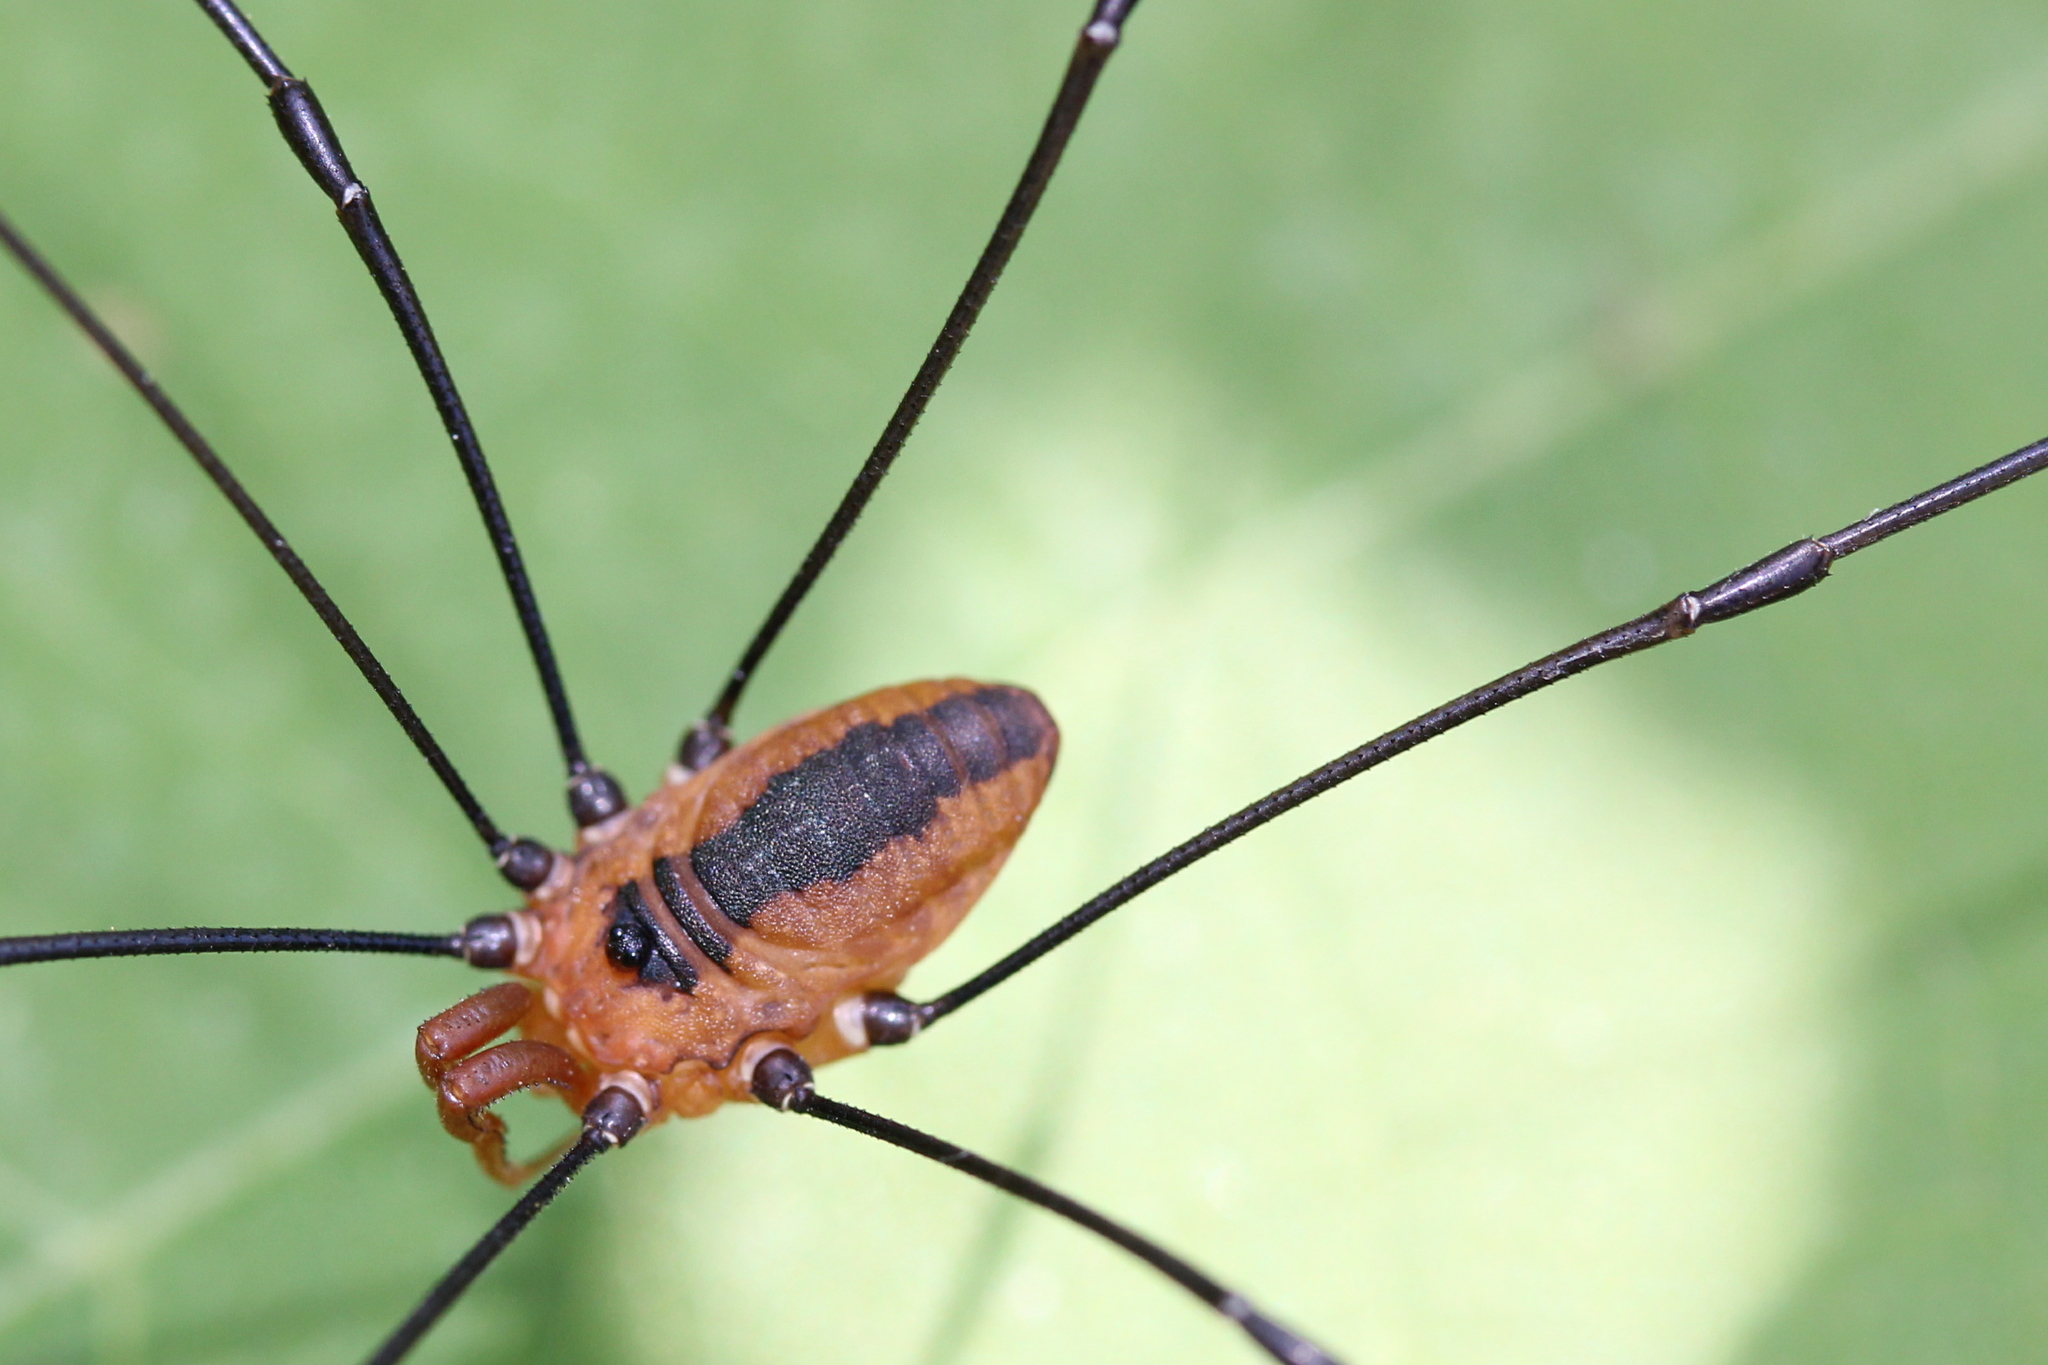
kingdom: Animalia
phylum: Arthropoda
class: Arachnida
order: Opiliones
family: Sclerosomatidae
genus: Leiobunum
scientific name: Leiobunum vittatum
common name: Eastern harvestman
